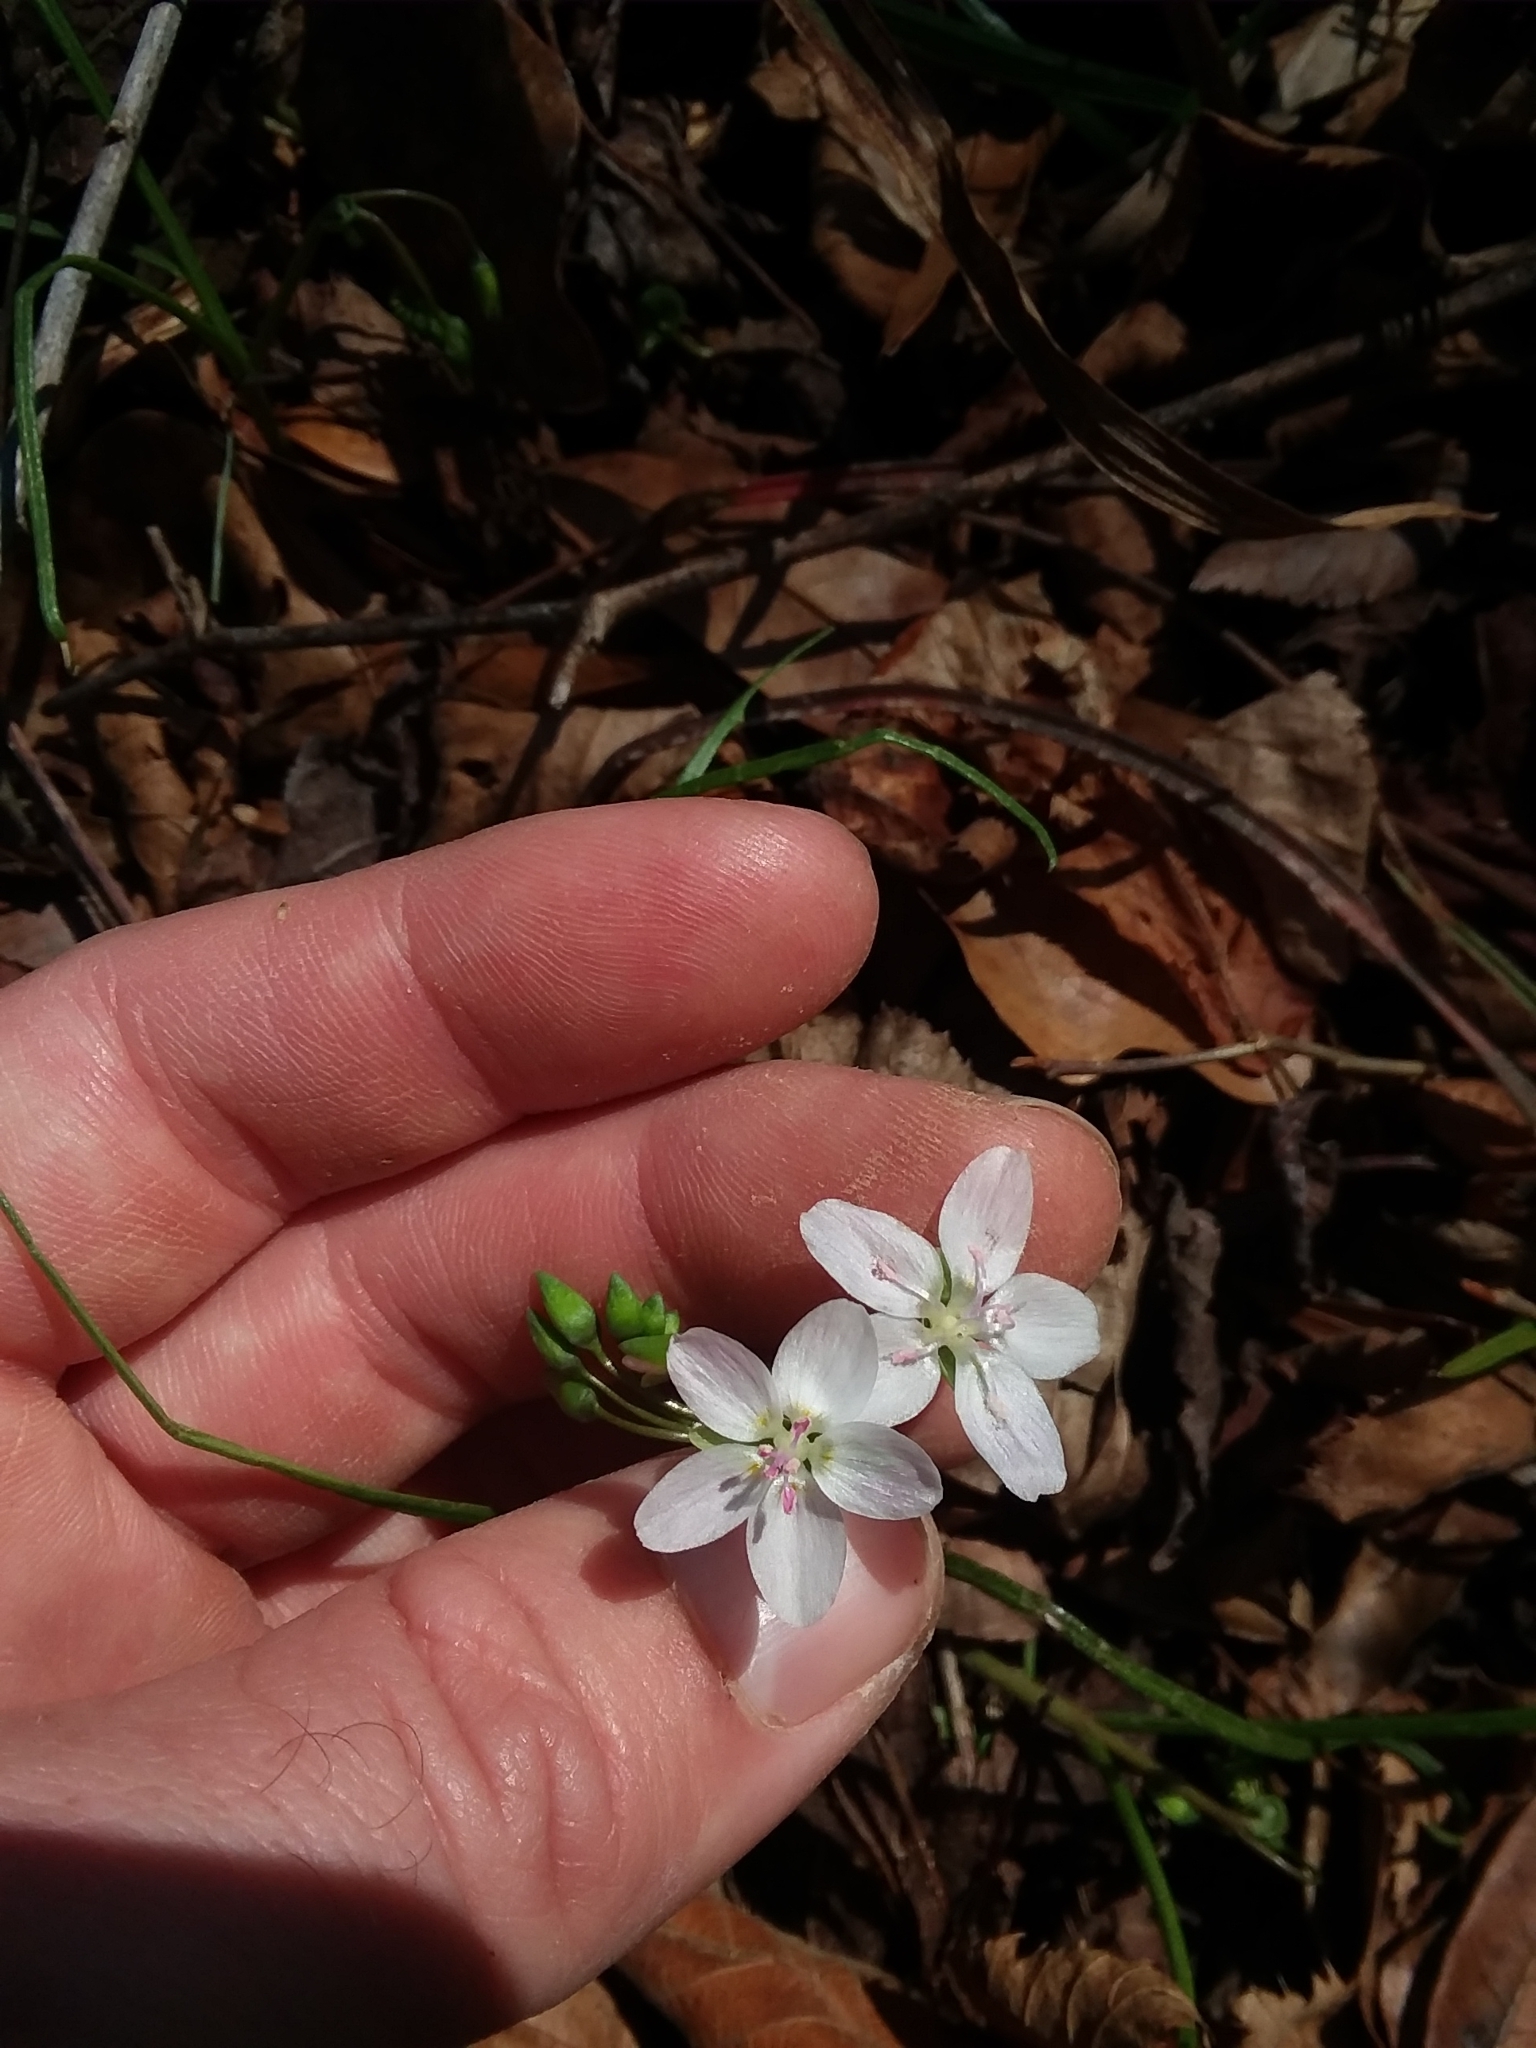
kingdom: Plantae
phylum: Tracheophyta
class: Magnoliopsida
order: Caryophyllales
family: Montiaceae
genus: Claytonia
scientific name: Claytonia virginica
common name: Virginia springbeauty
